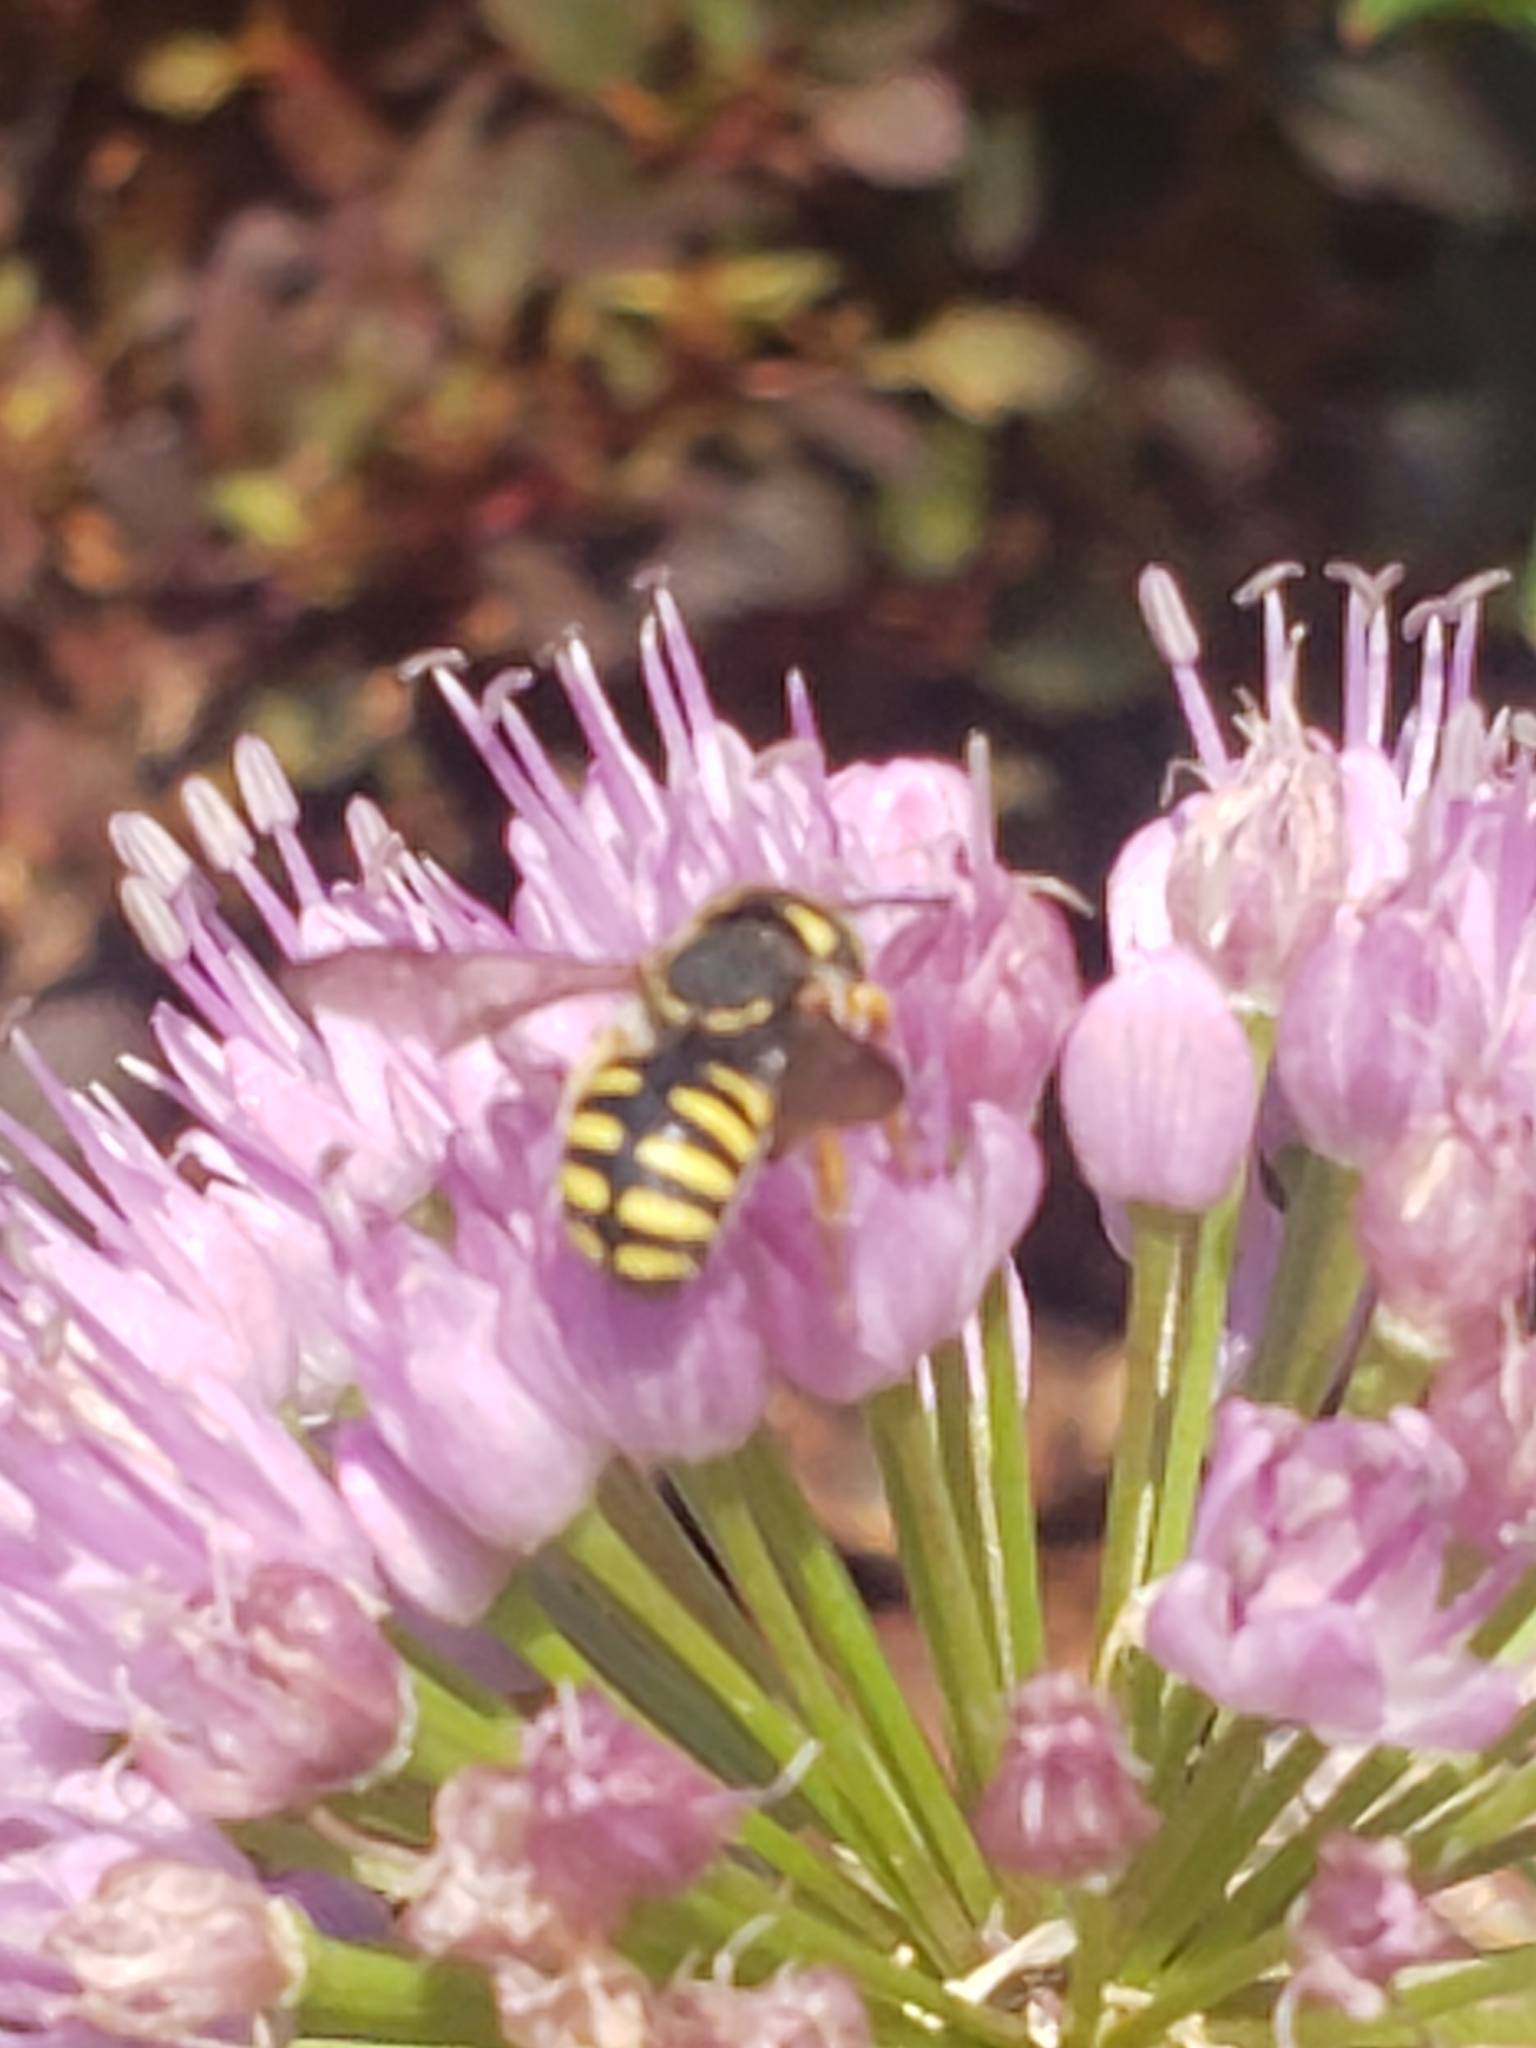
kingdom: Animalia
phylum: Arthropoda
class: Insecta
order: Hymenoptera
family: Megachilidae
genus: Anthidium
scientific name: Anthidium oblongatum
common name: Oblong wool carder bee
